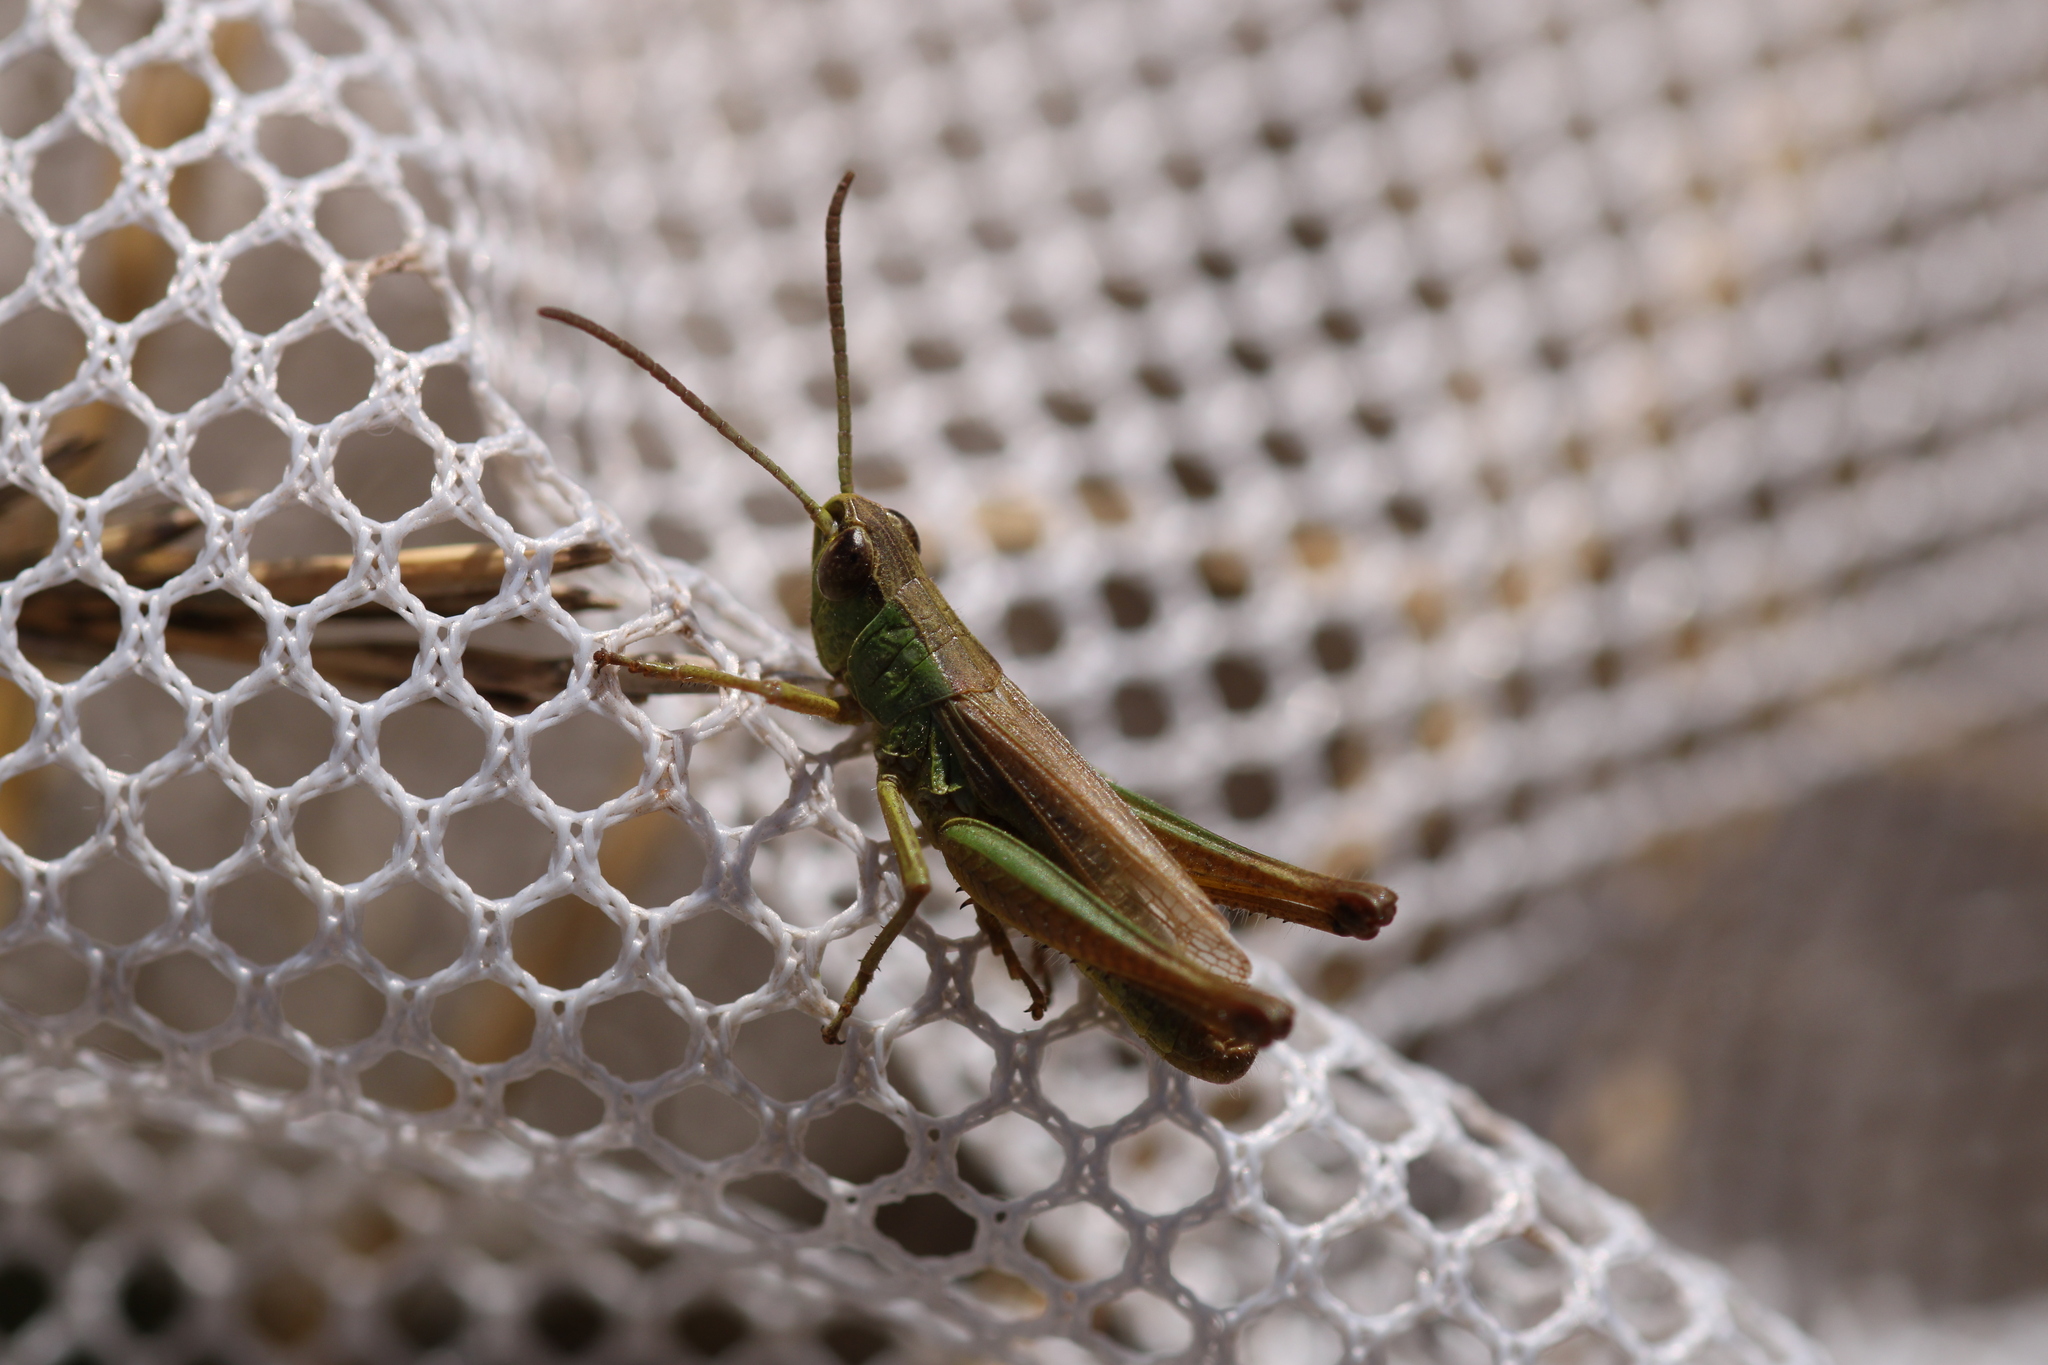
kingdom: Animalia
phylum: Arthropoda
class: Insecta
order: Orthoptera
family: Acrididae
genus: Pseudochorthippus
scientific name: Pseudochorthippus parallelus
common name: Meadow grasshopper
